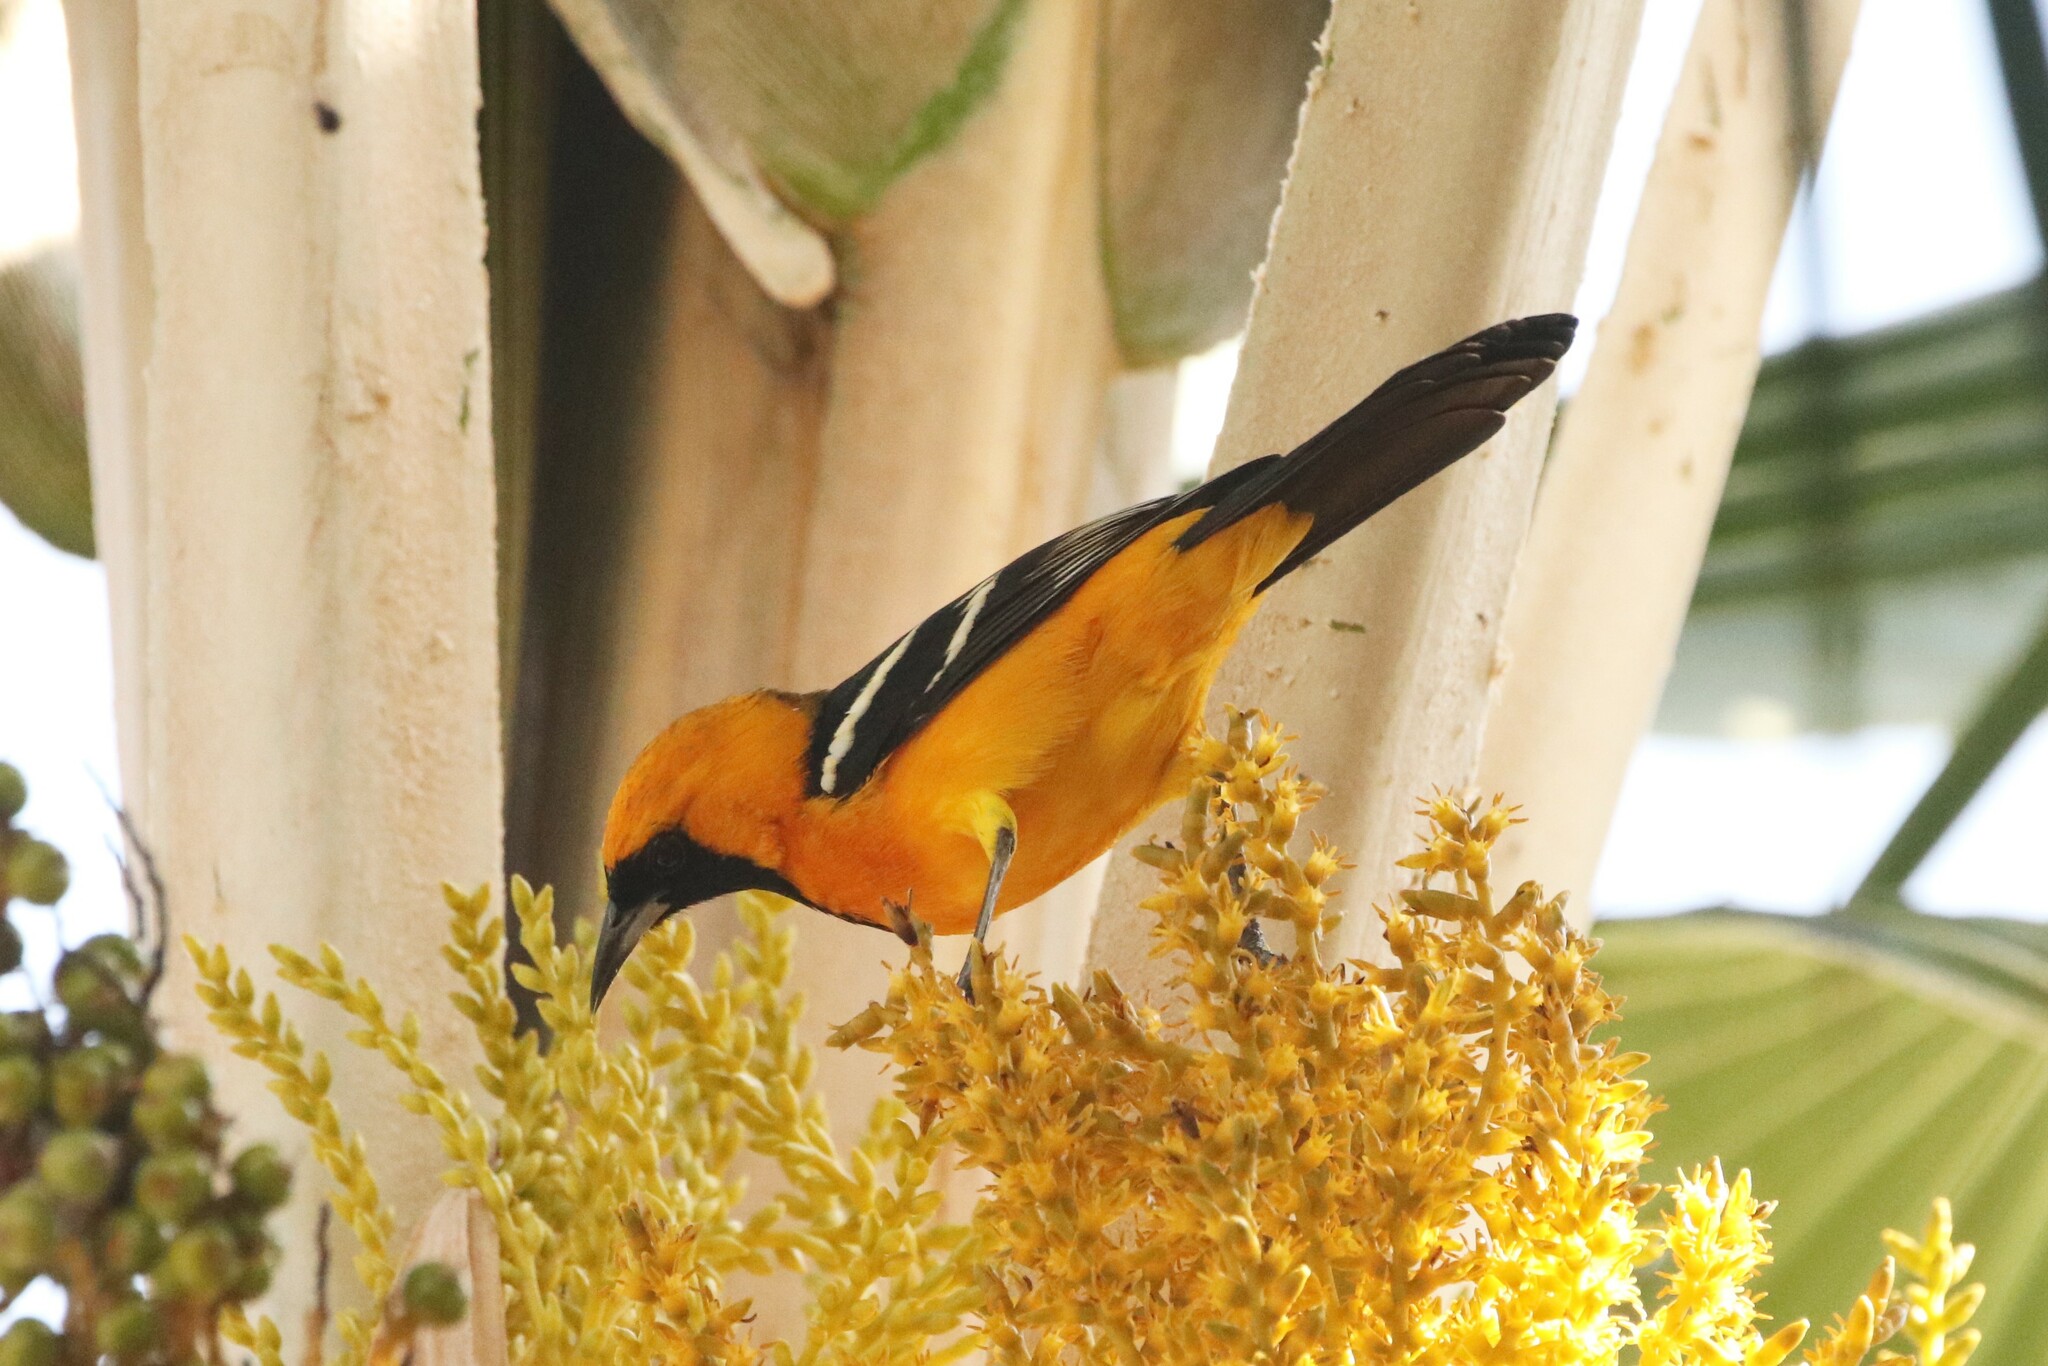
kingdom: Animalia
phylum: Chordata
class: Aves
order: Passeriformes
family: Icteridae
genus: Icterus
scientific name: Icterus cucullatus
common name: Hooded oriole
